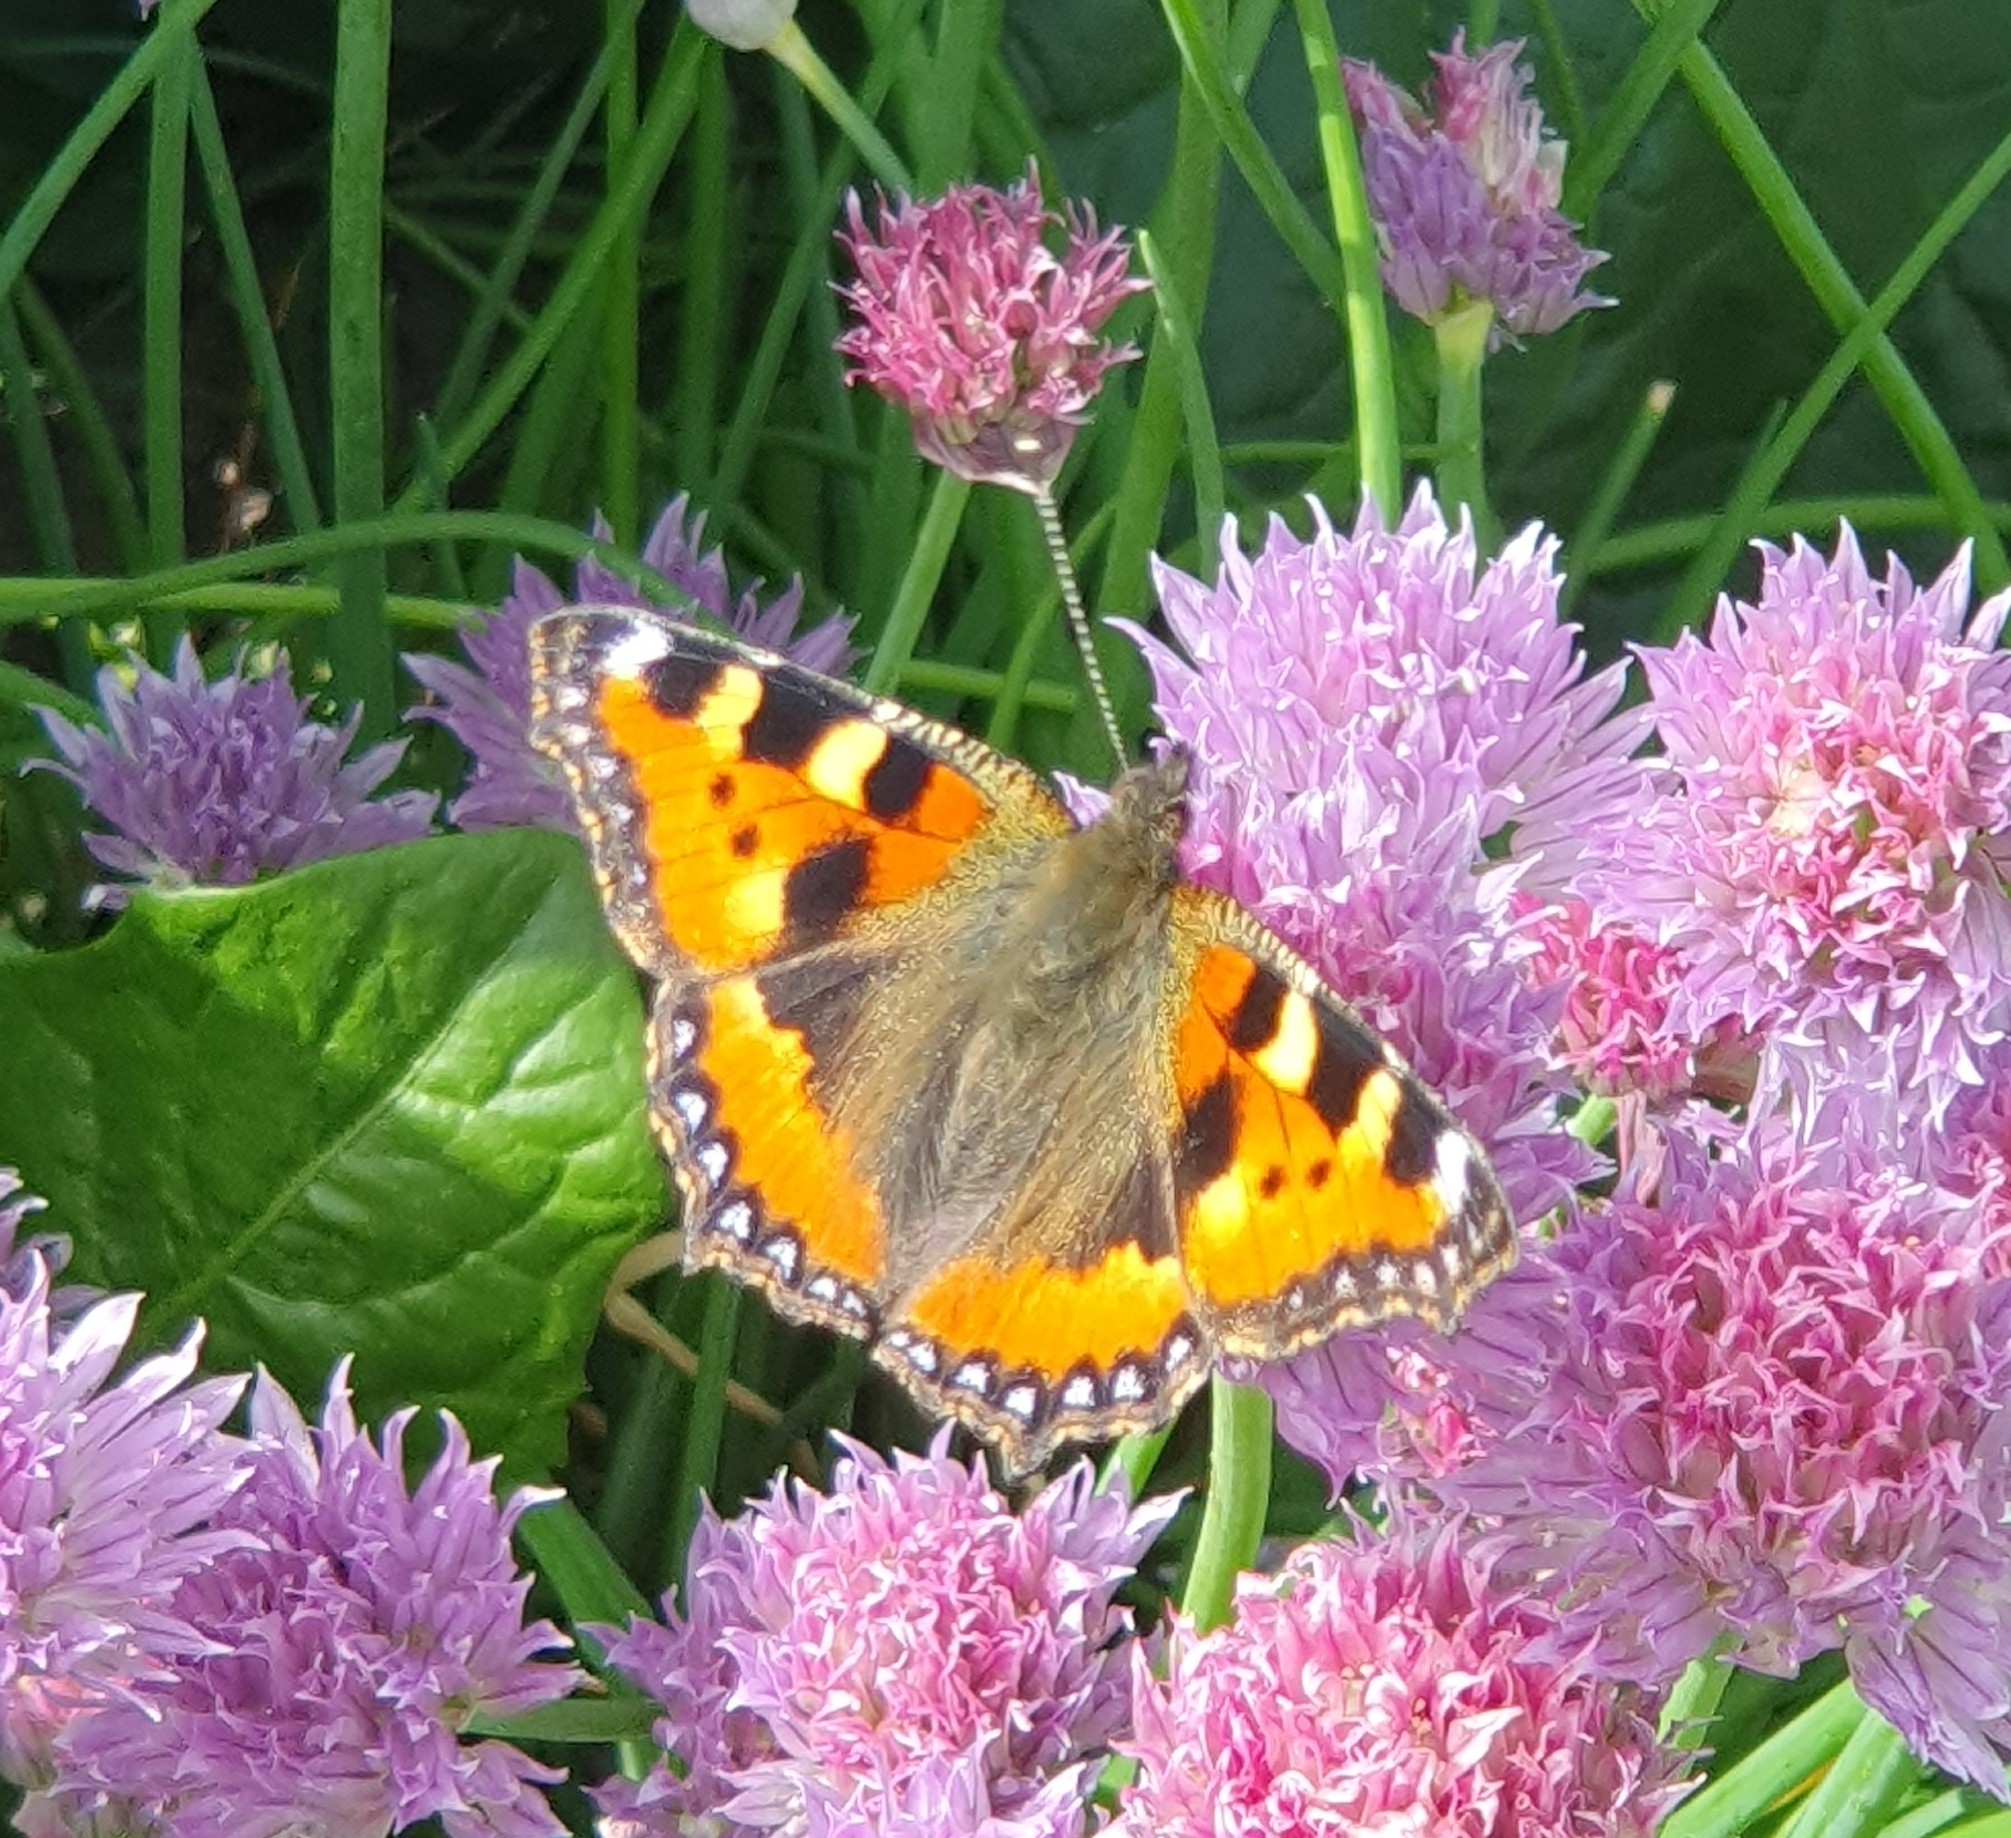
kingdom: Animalia
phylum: Arthropoda
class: Insecta
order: Lepidoptera
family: Nymphalidae
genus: Aglais
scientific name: Aglais urticae
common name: Small tortoiseshell
